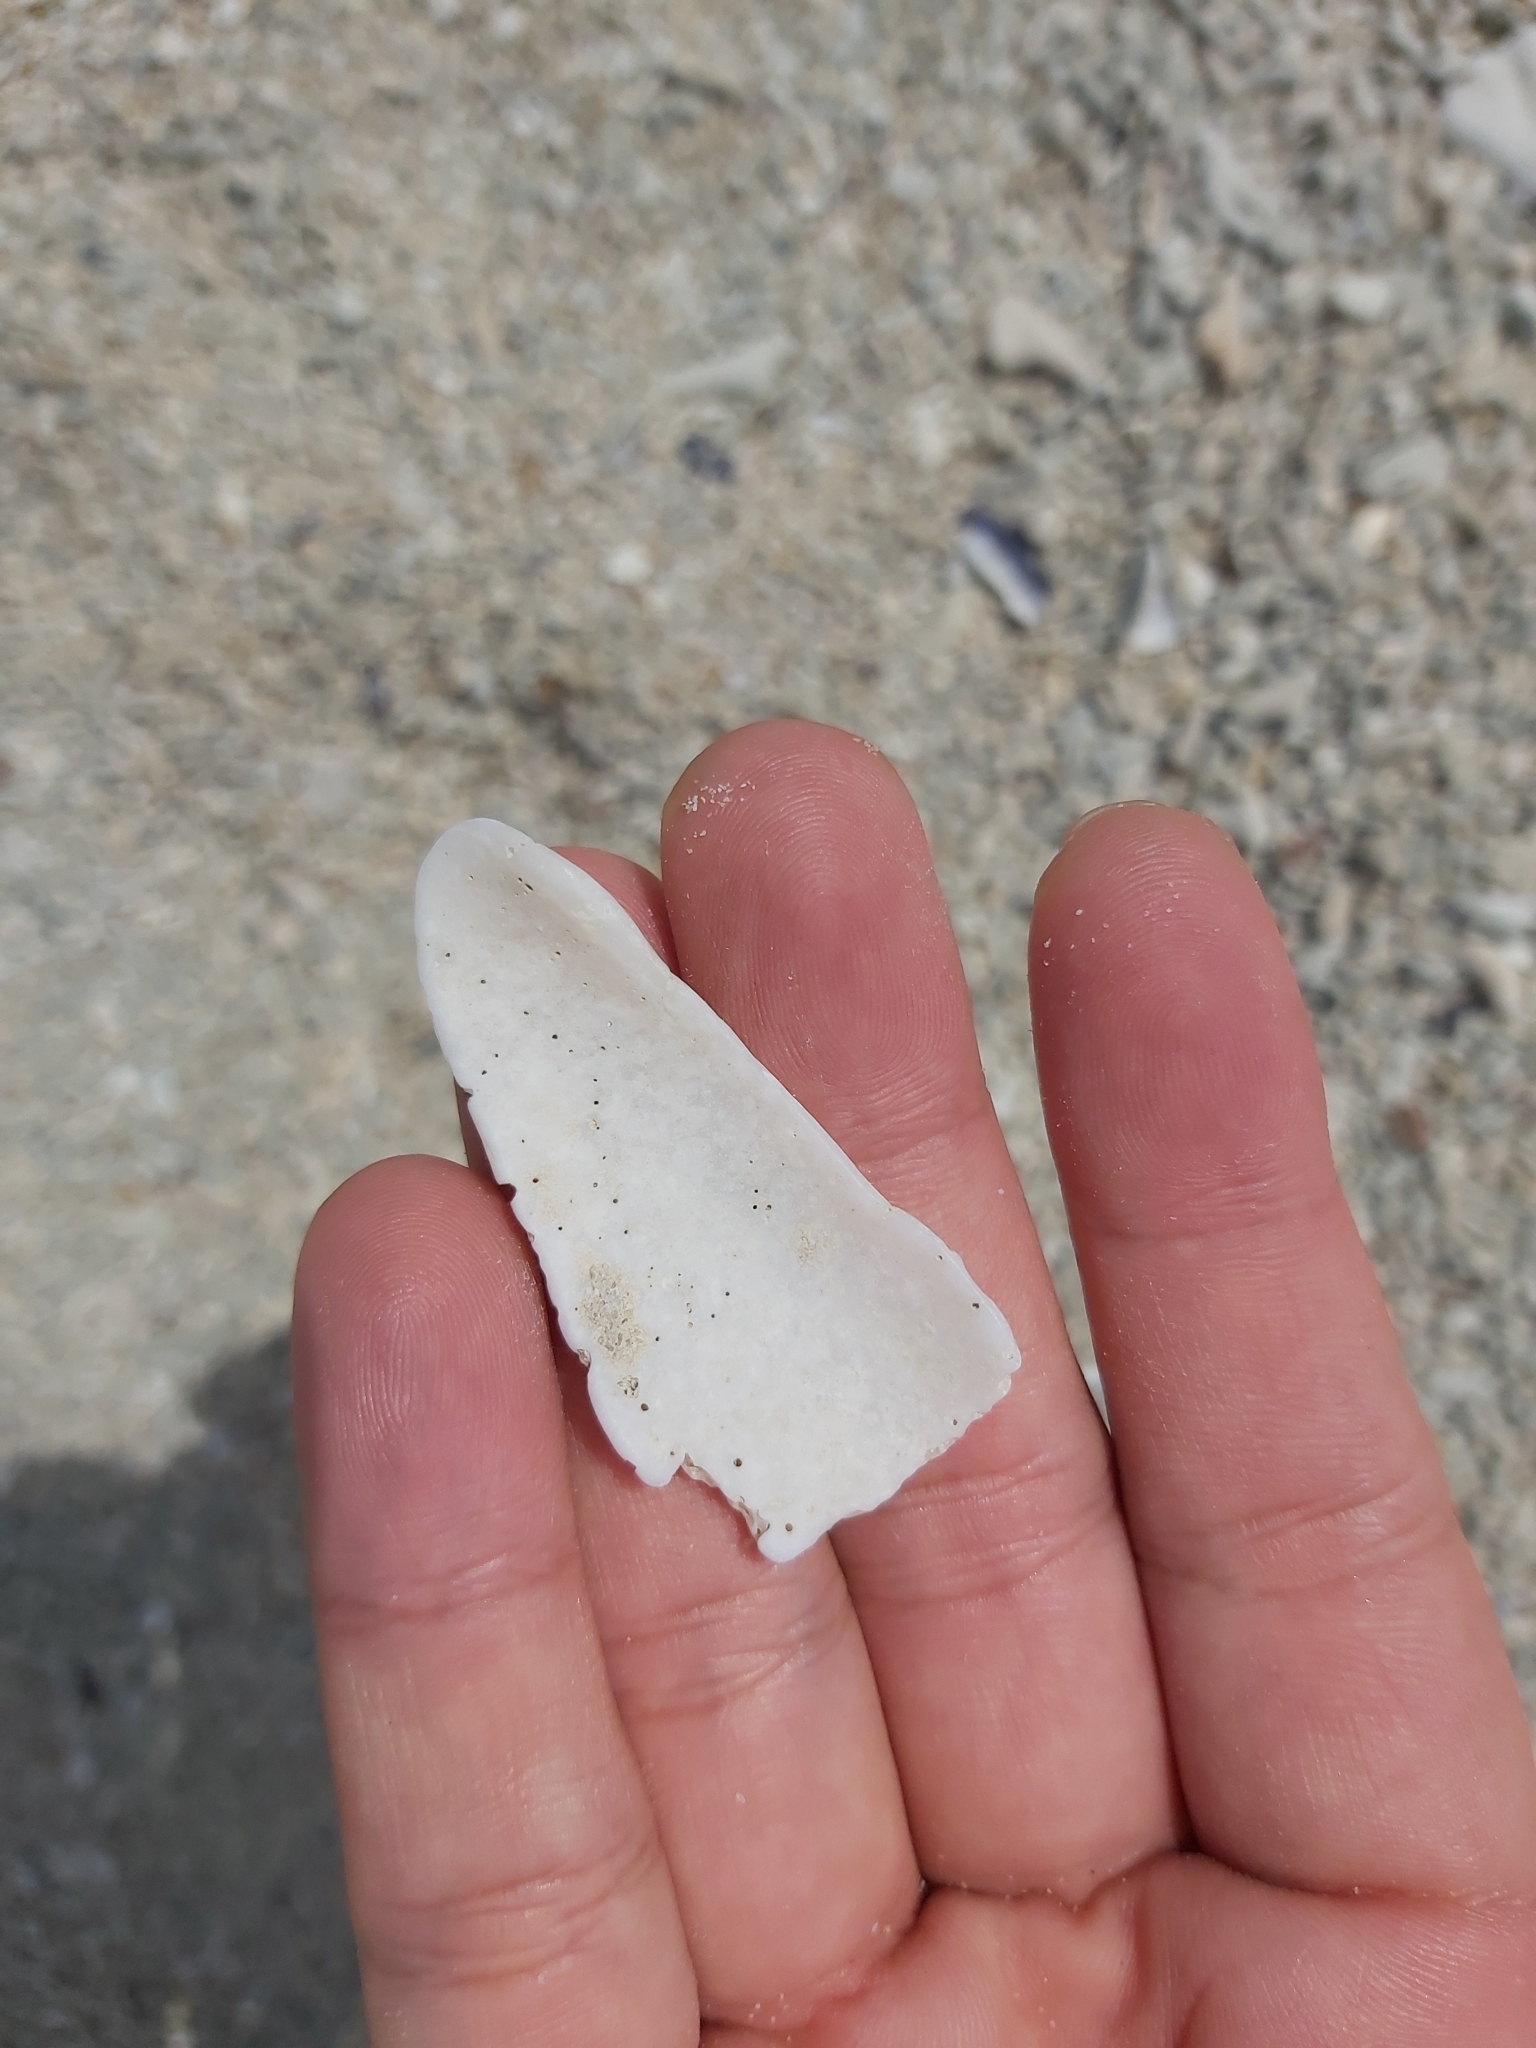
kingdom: Animalia
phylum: Mollusca
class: Gastropoda
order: Neogastropoda
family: Conidae
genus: Conus
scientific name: Conus textile
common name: Cloth-of-gold cone
